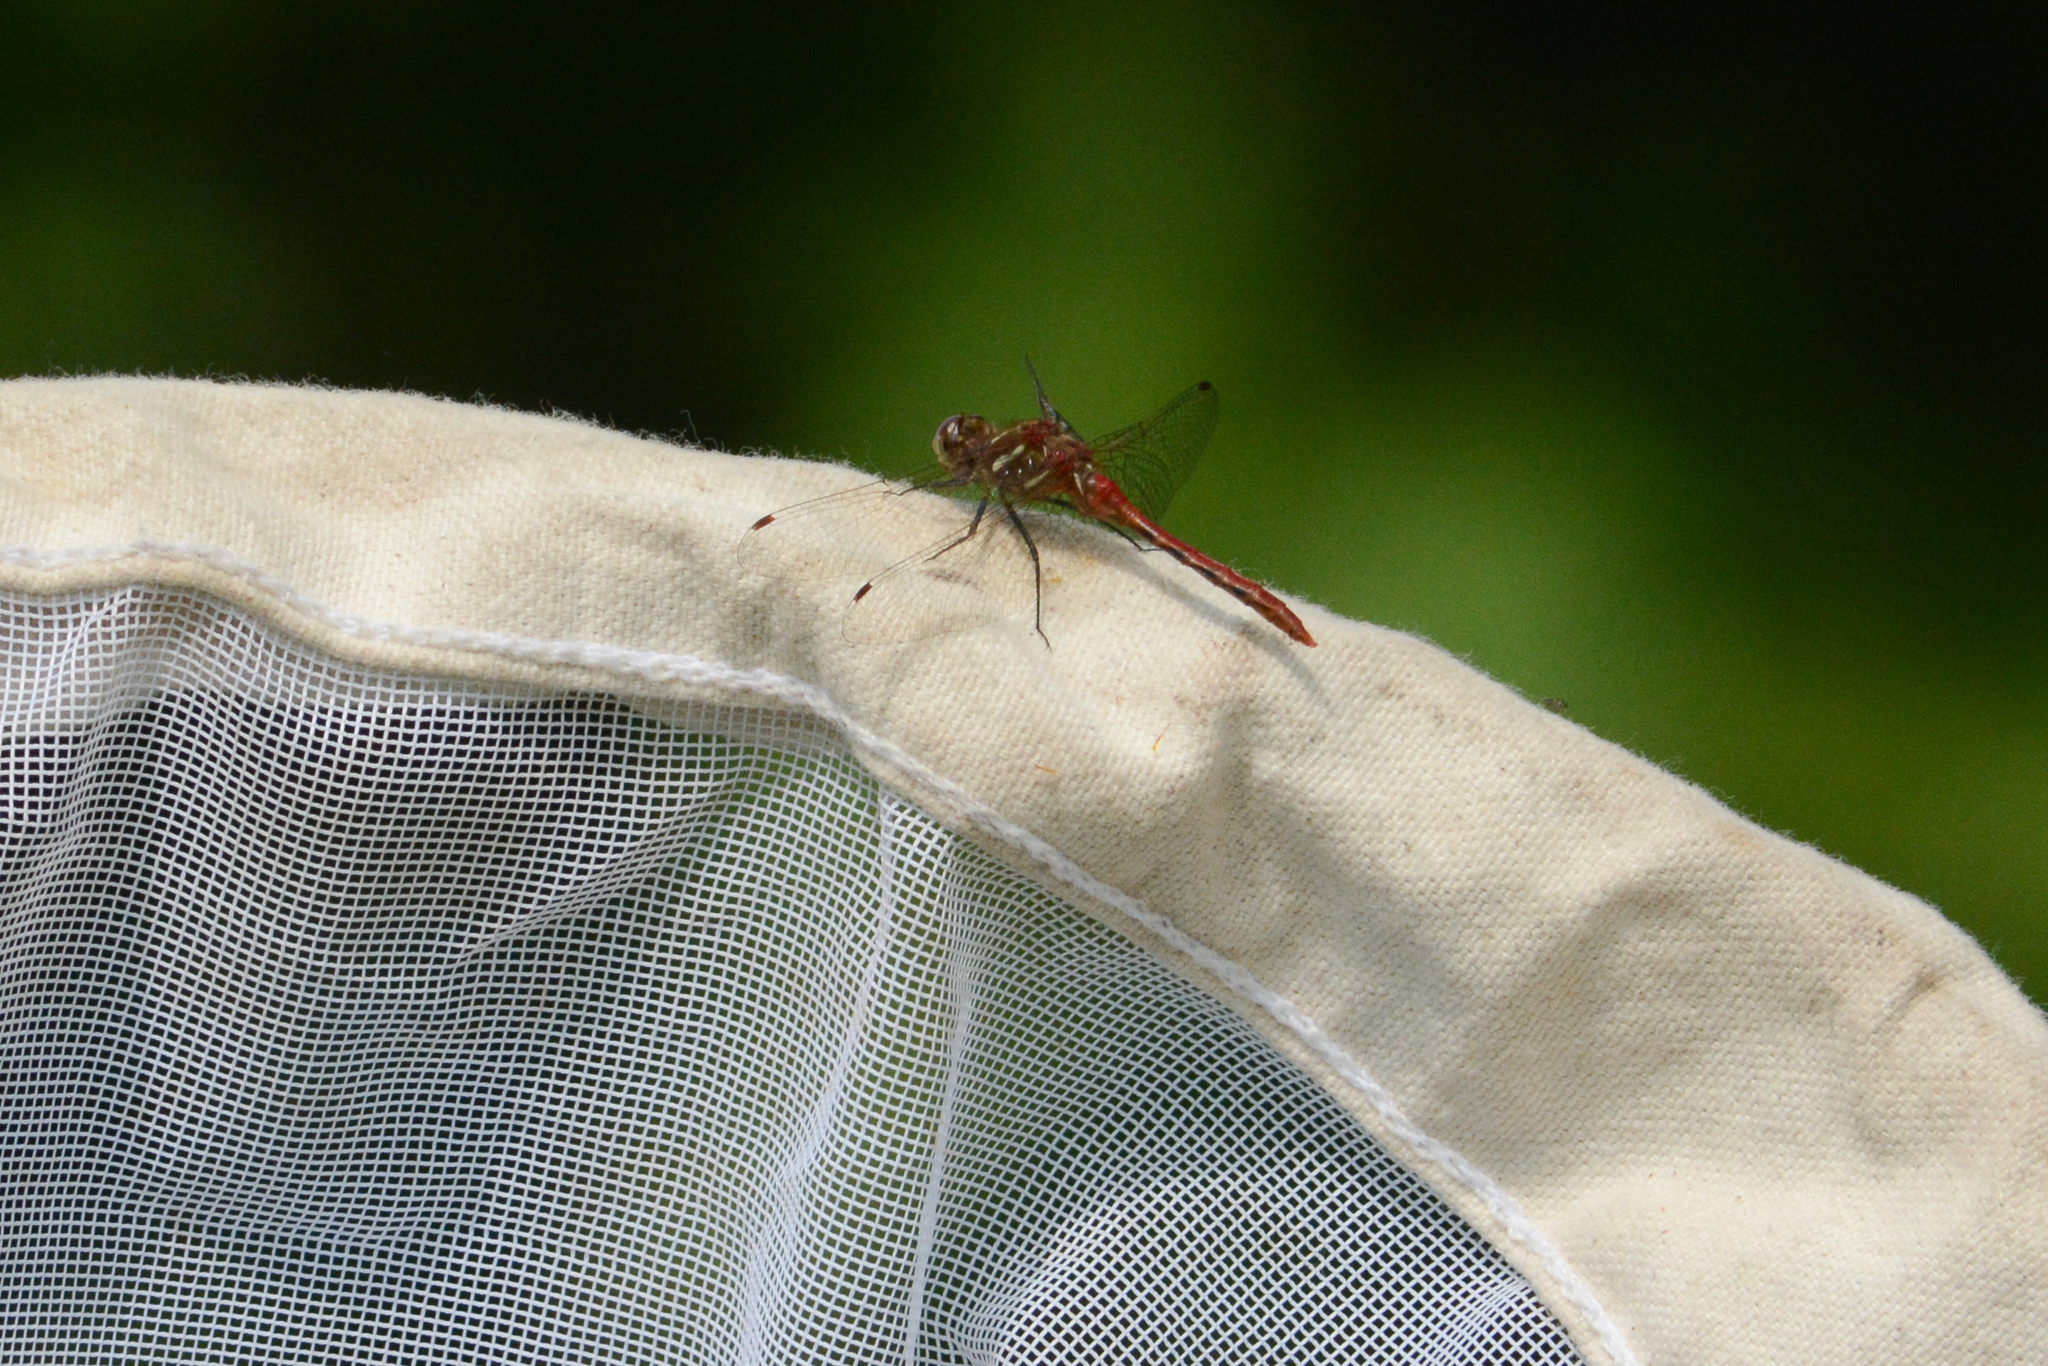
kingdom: Animalia
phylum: Arthropoda
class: Insecta
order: Odonata
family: Libellulidae
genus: Sympetrum
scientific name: Sympetrum pallipes
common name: Striped meadowhawk
